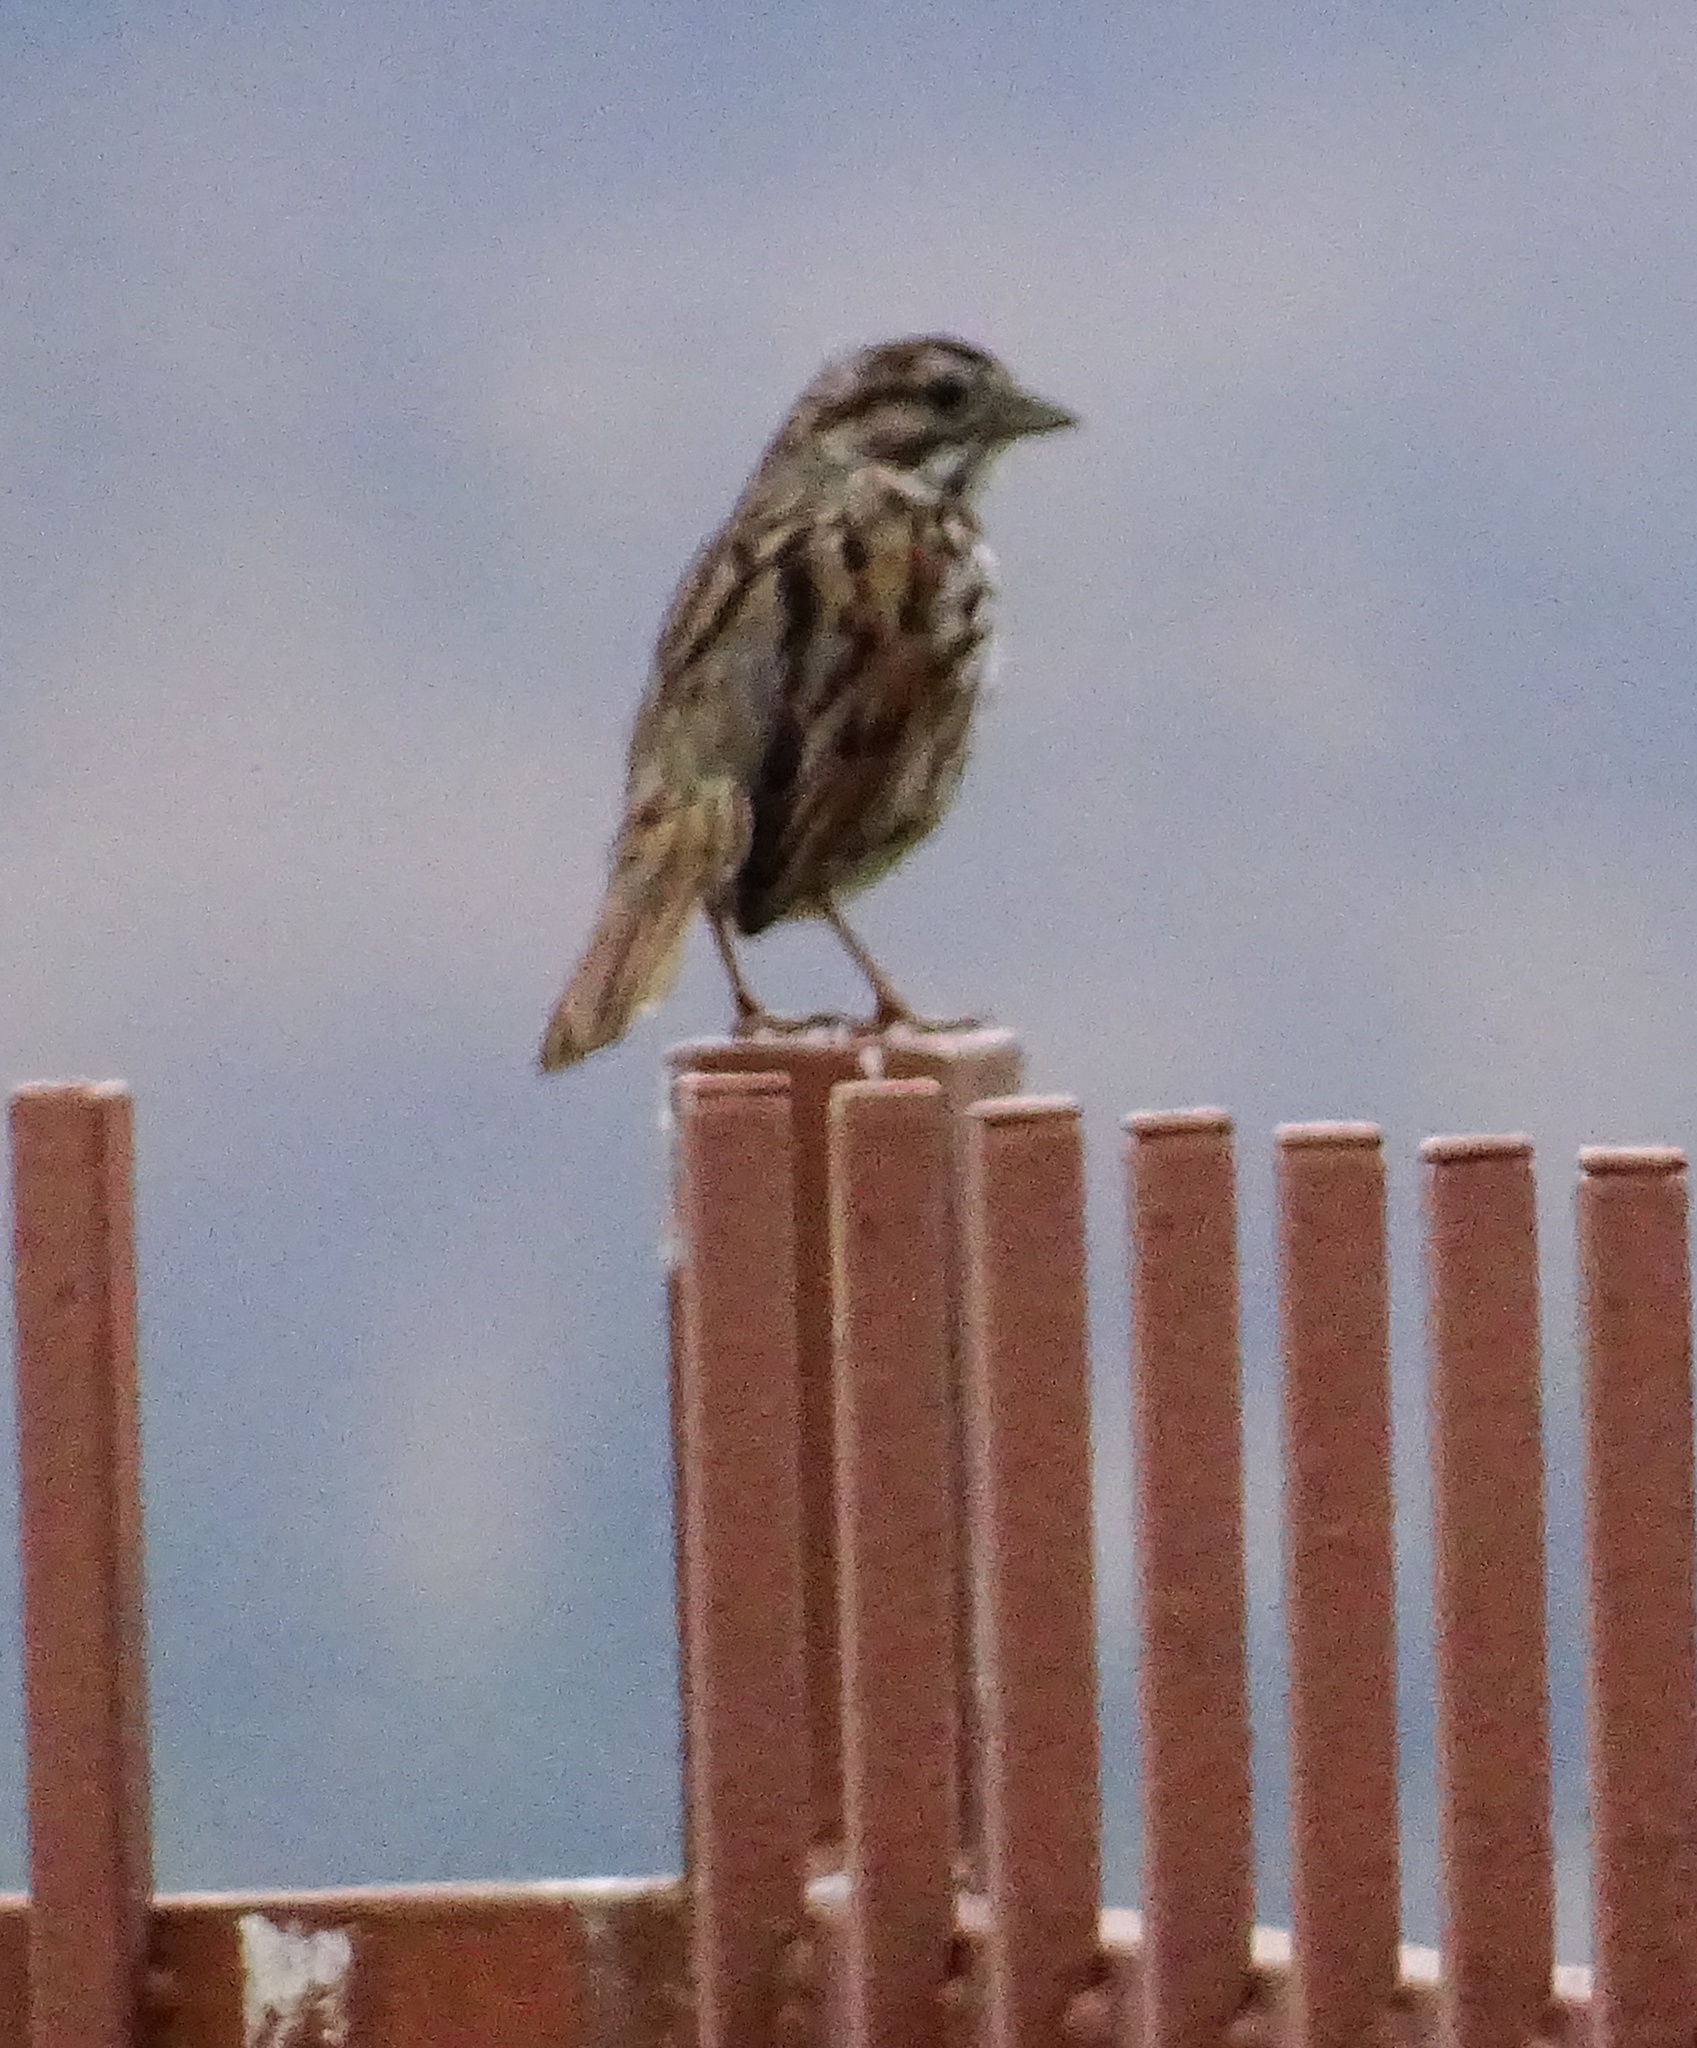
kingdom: Animalia
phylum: Chordata
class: Aves
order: Passeriformes
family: Passerellidae
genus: Melospiza
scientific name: Melospiza melodia
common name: Song sparrow
